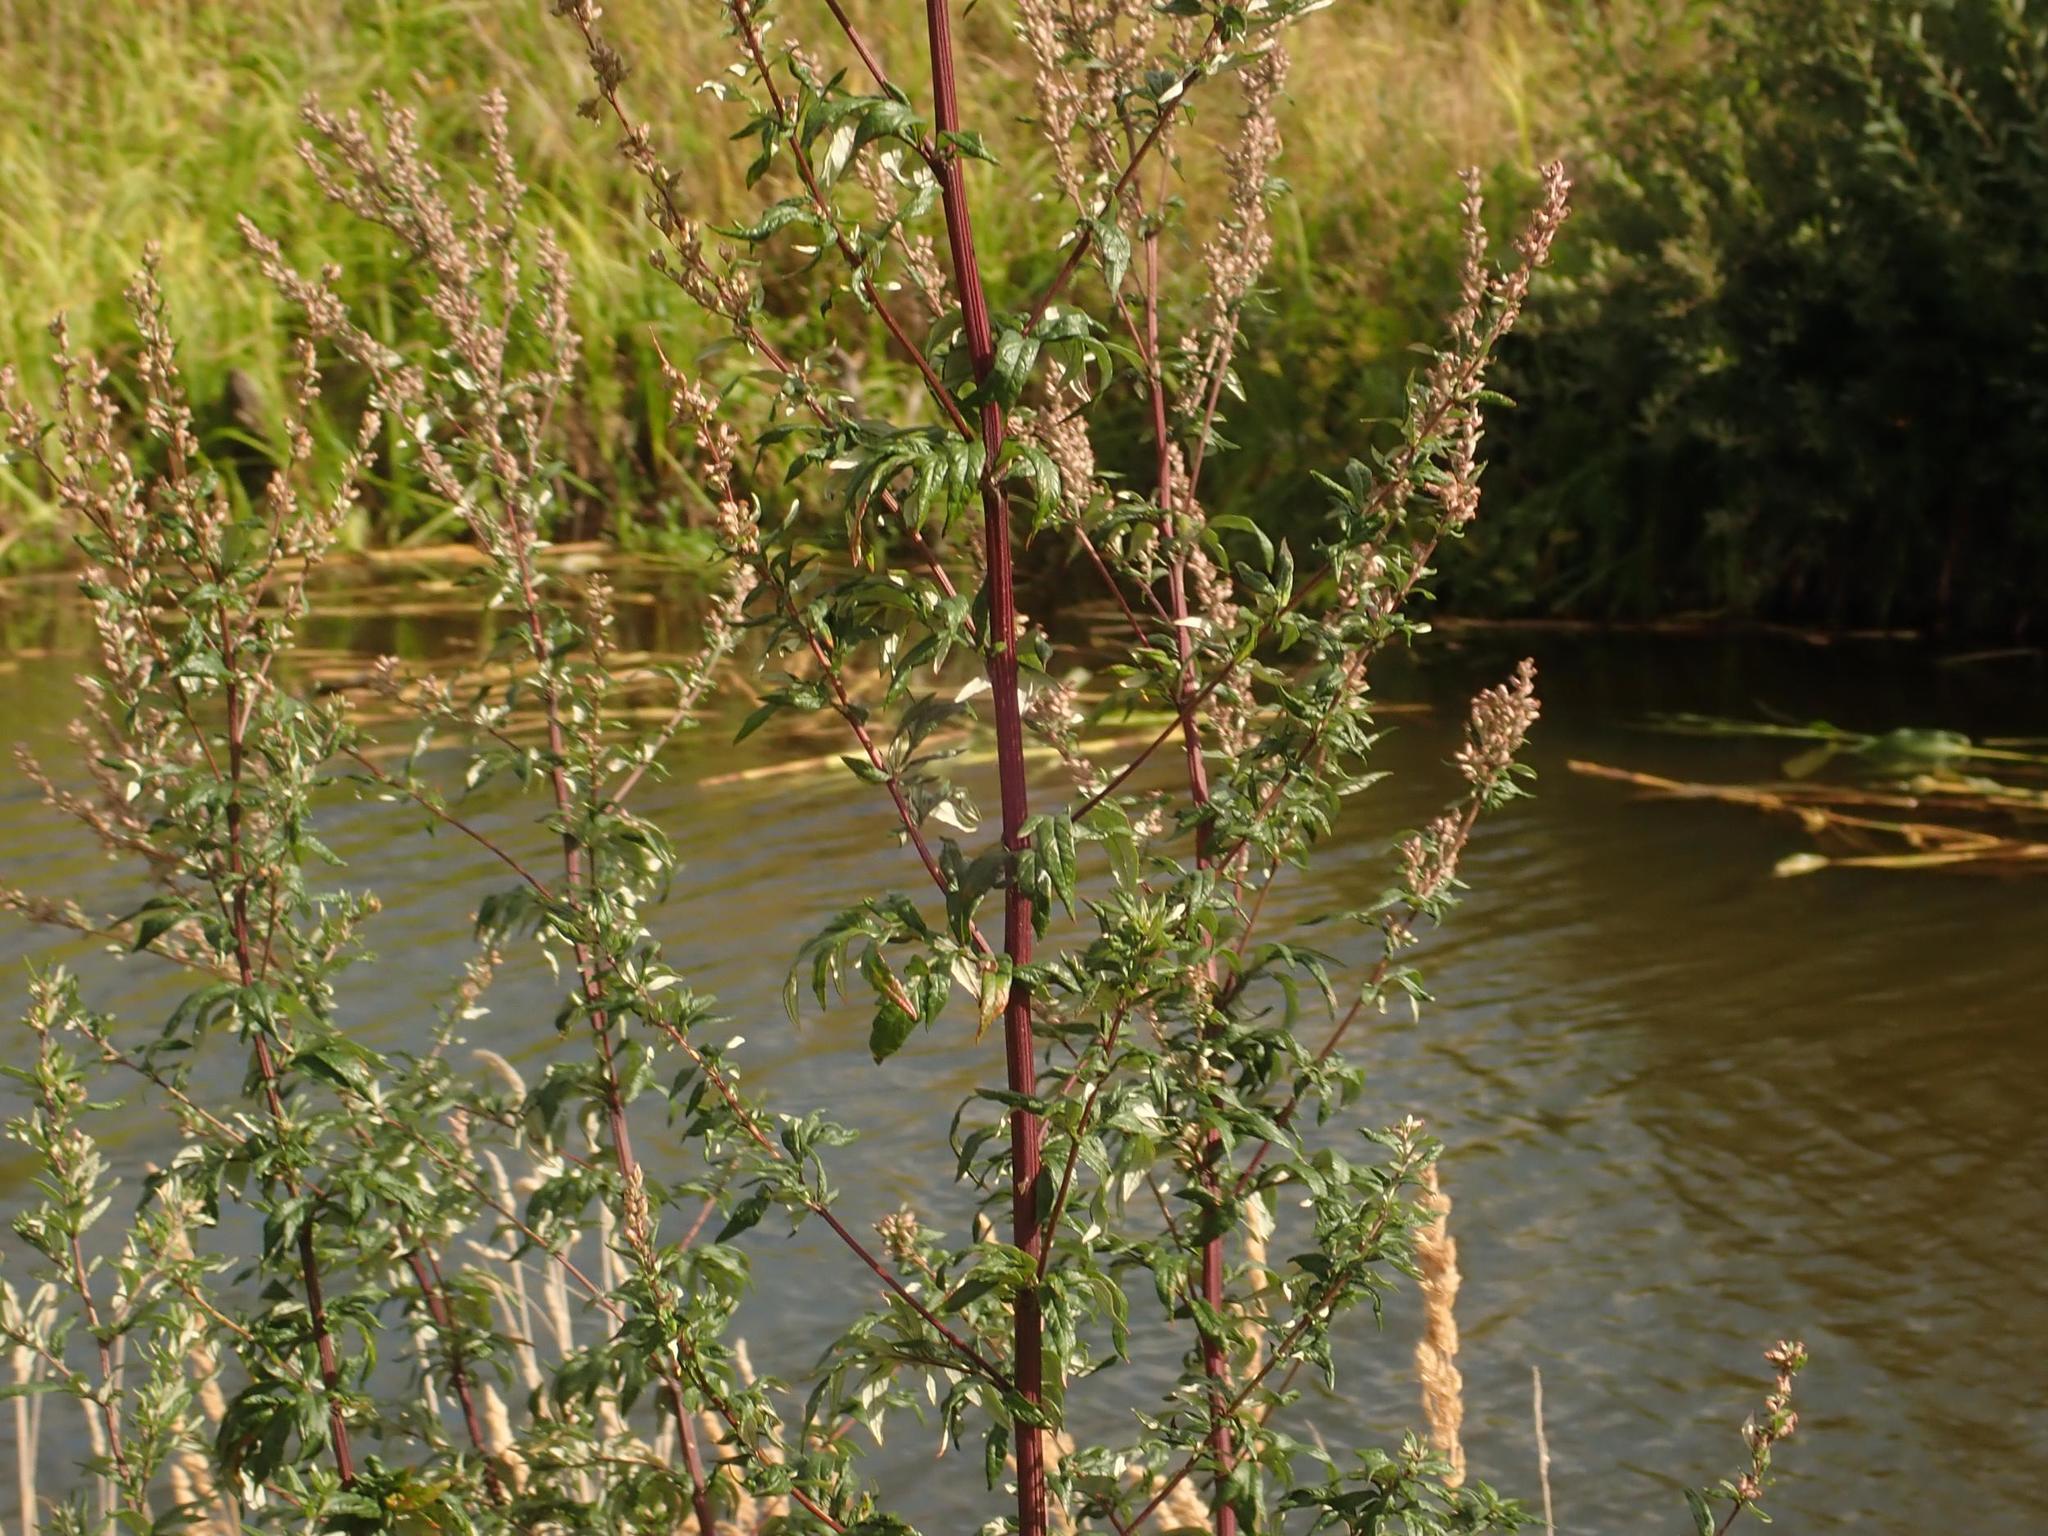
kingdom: Plantae
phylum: Tracheophyta
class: Magnoliopsida
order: Asterales
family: Asteraceae
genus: Artemisia
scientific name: Artemisia vulgaris
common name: Mugwort
